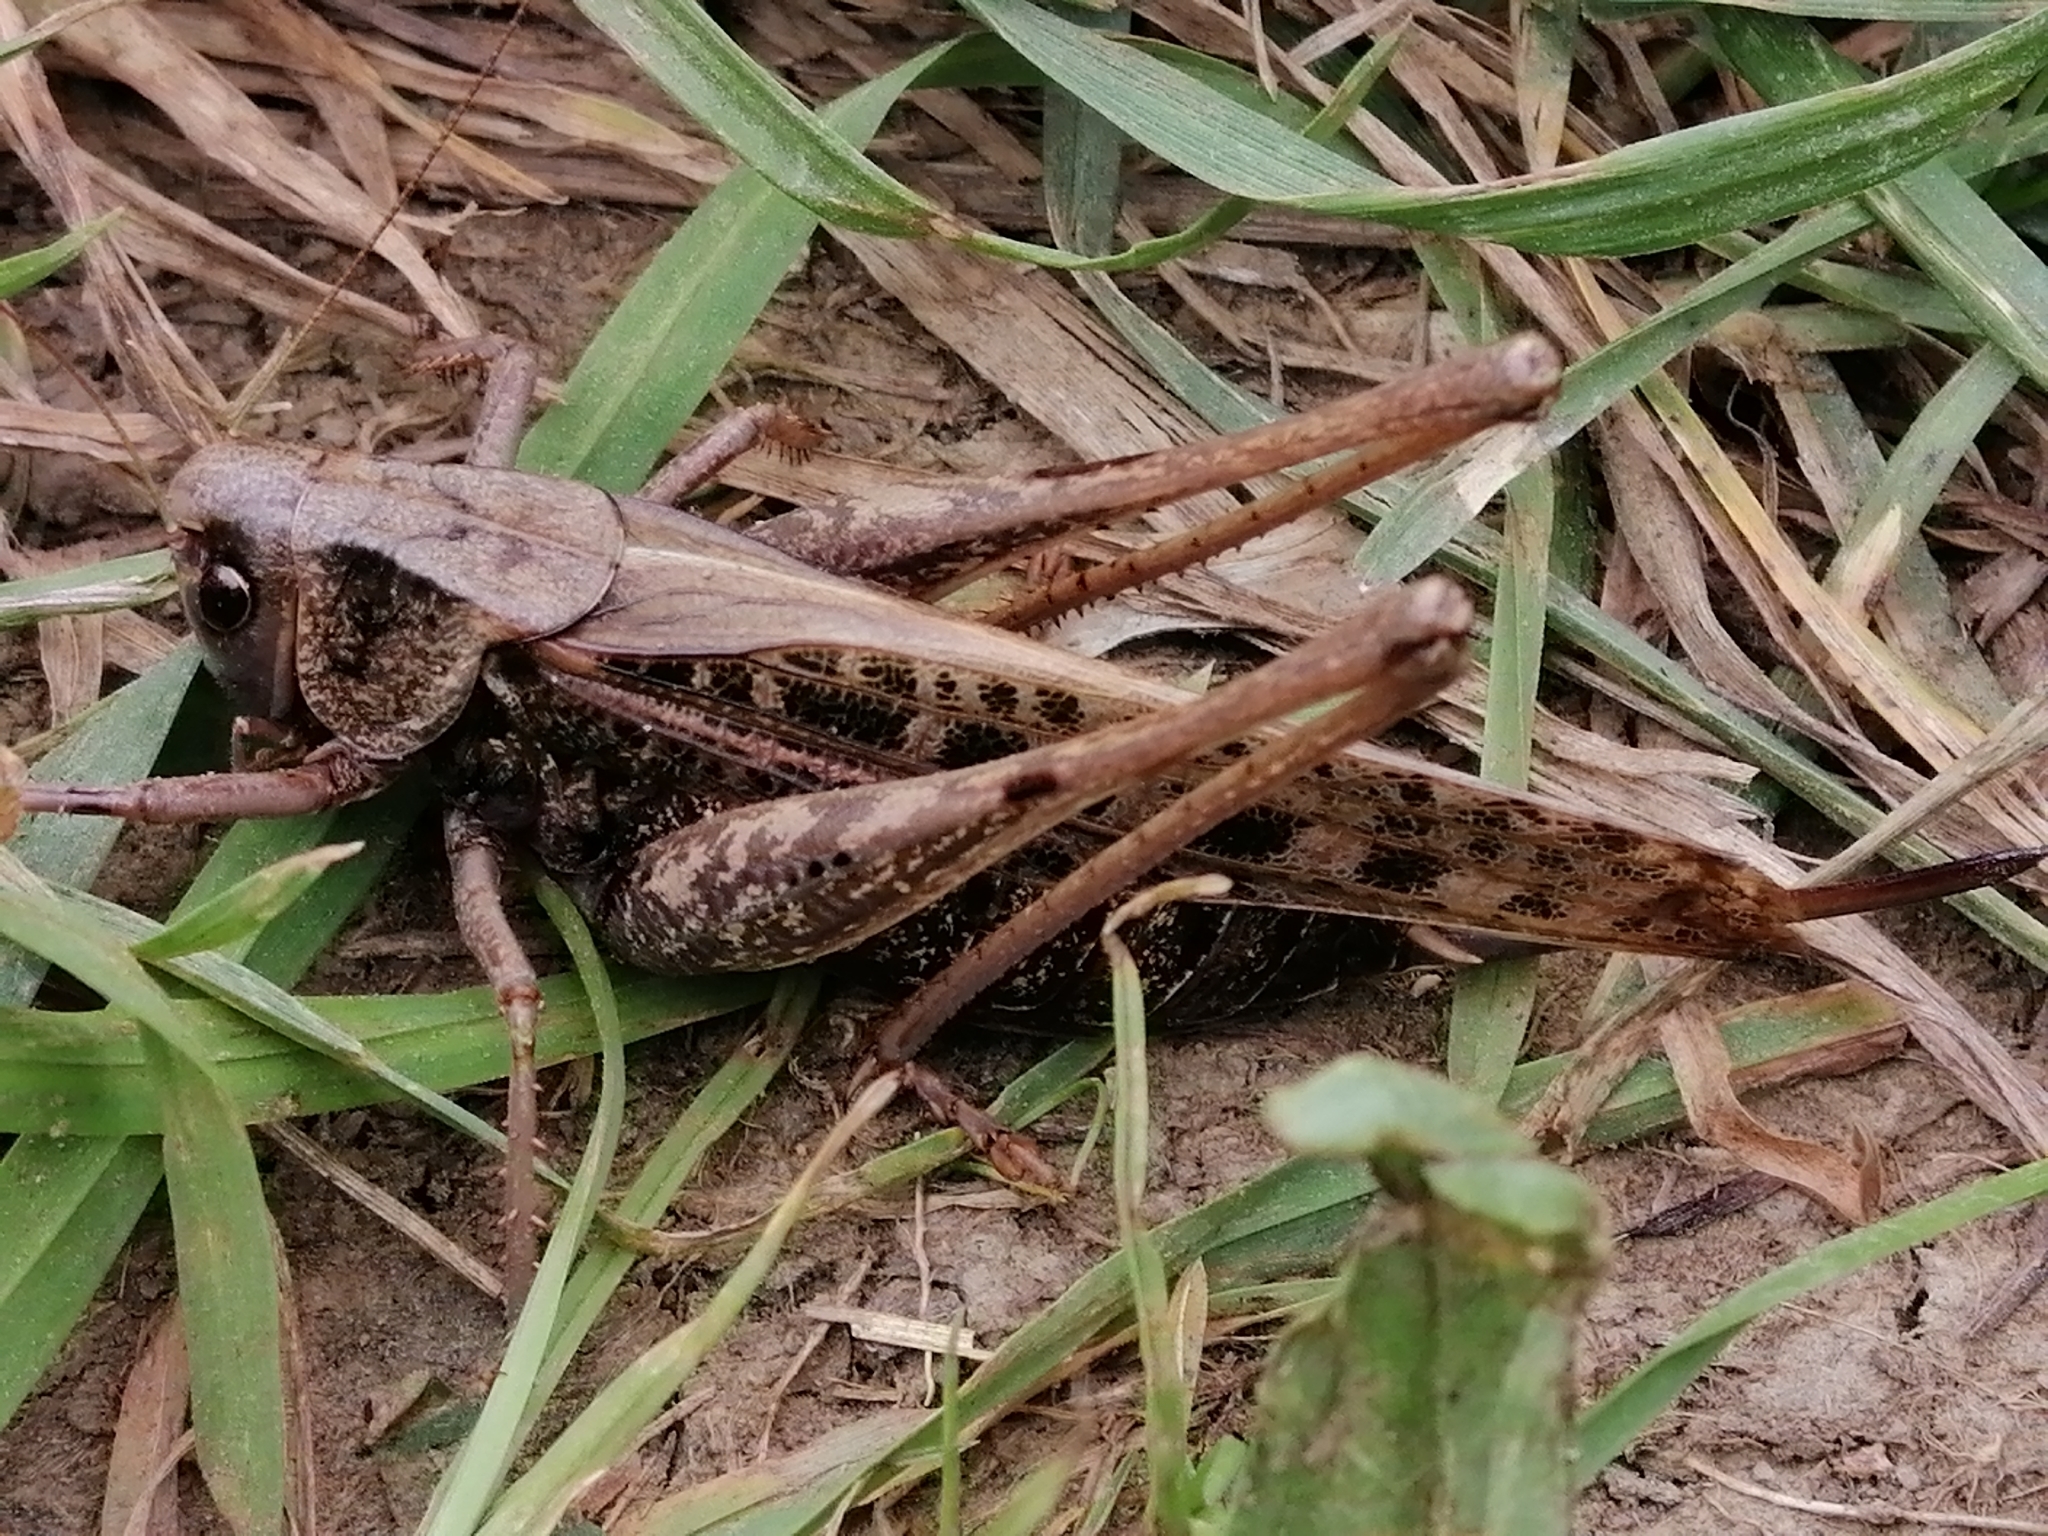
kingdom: Animalia
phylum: Arthropoda
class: Insecta
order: Orthoptera
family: Tettigoniidae
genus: Decticus
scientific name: Decticus verrucivorus
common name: Wart-biter
